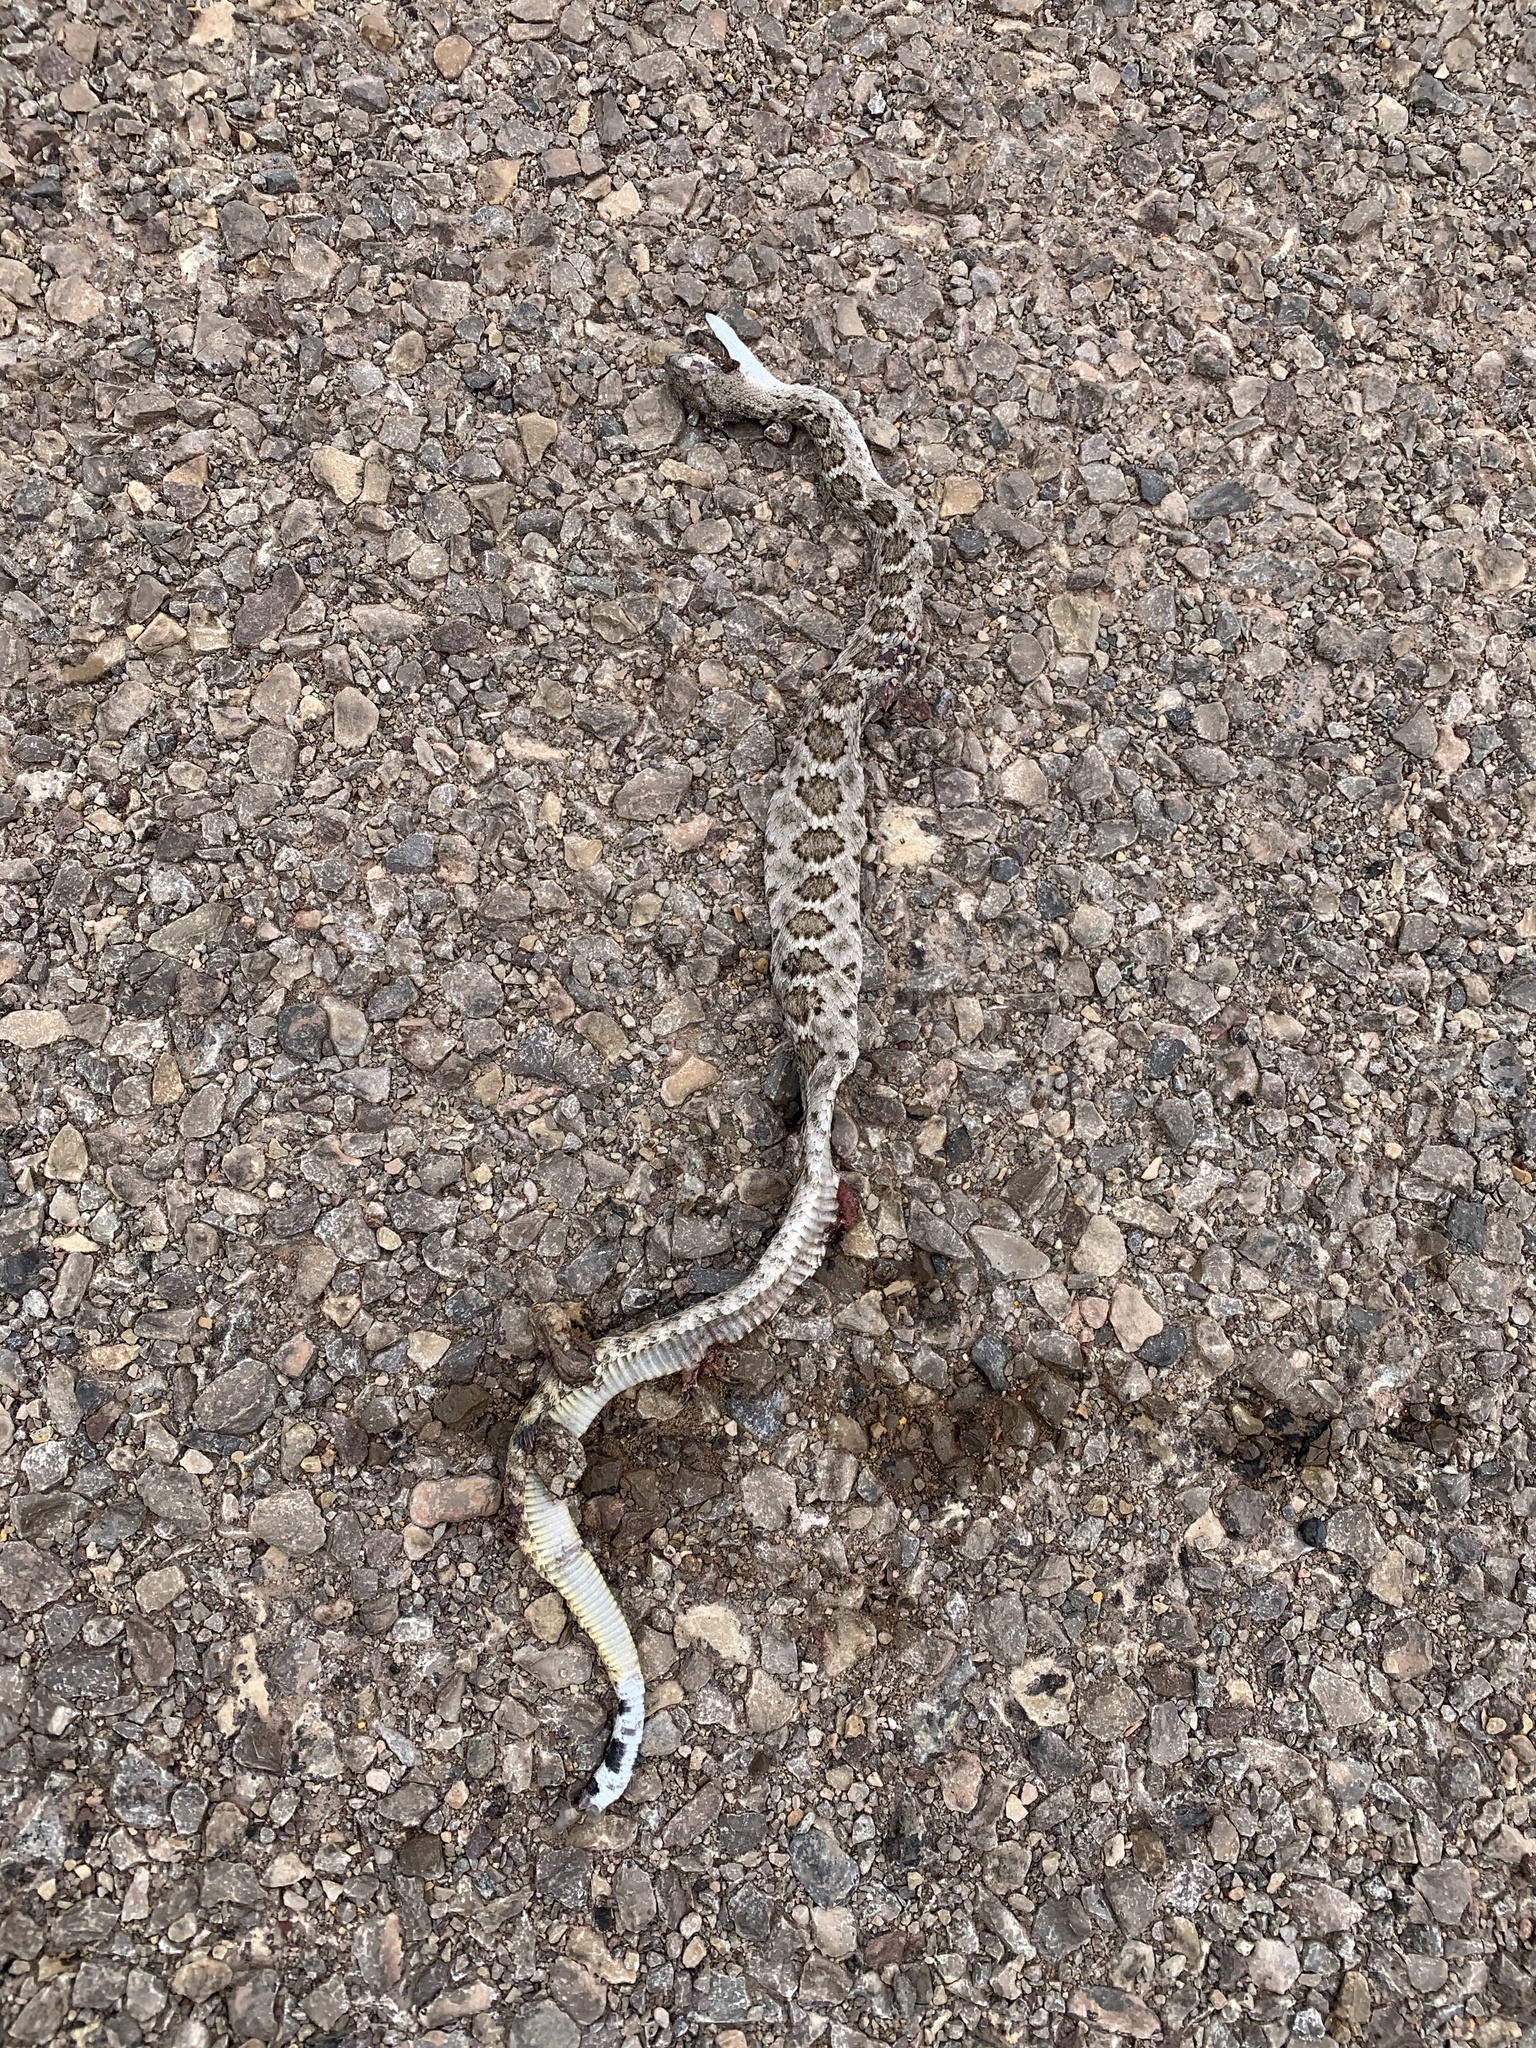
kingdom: Animalia
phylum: Chordata
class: Squamata
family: Viperidae
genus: Crotalus
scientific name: Crotalus atrox
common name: Western diamond-backed rattlesnake
